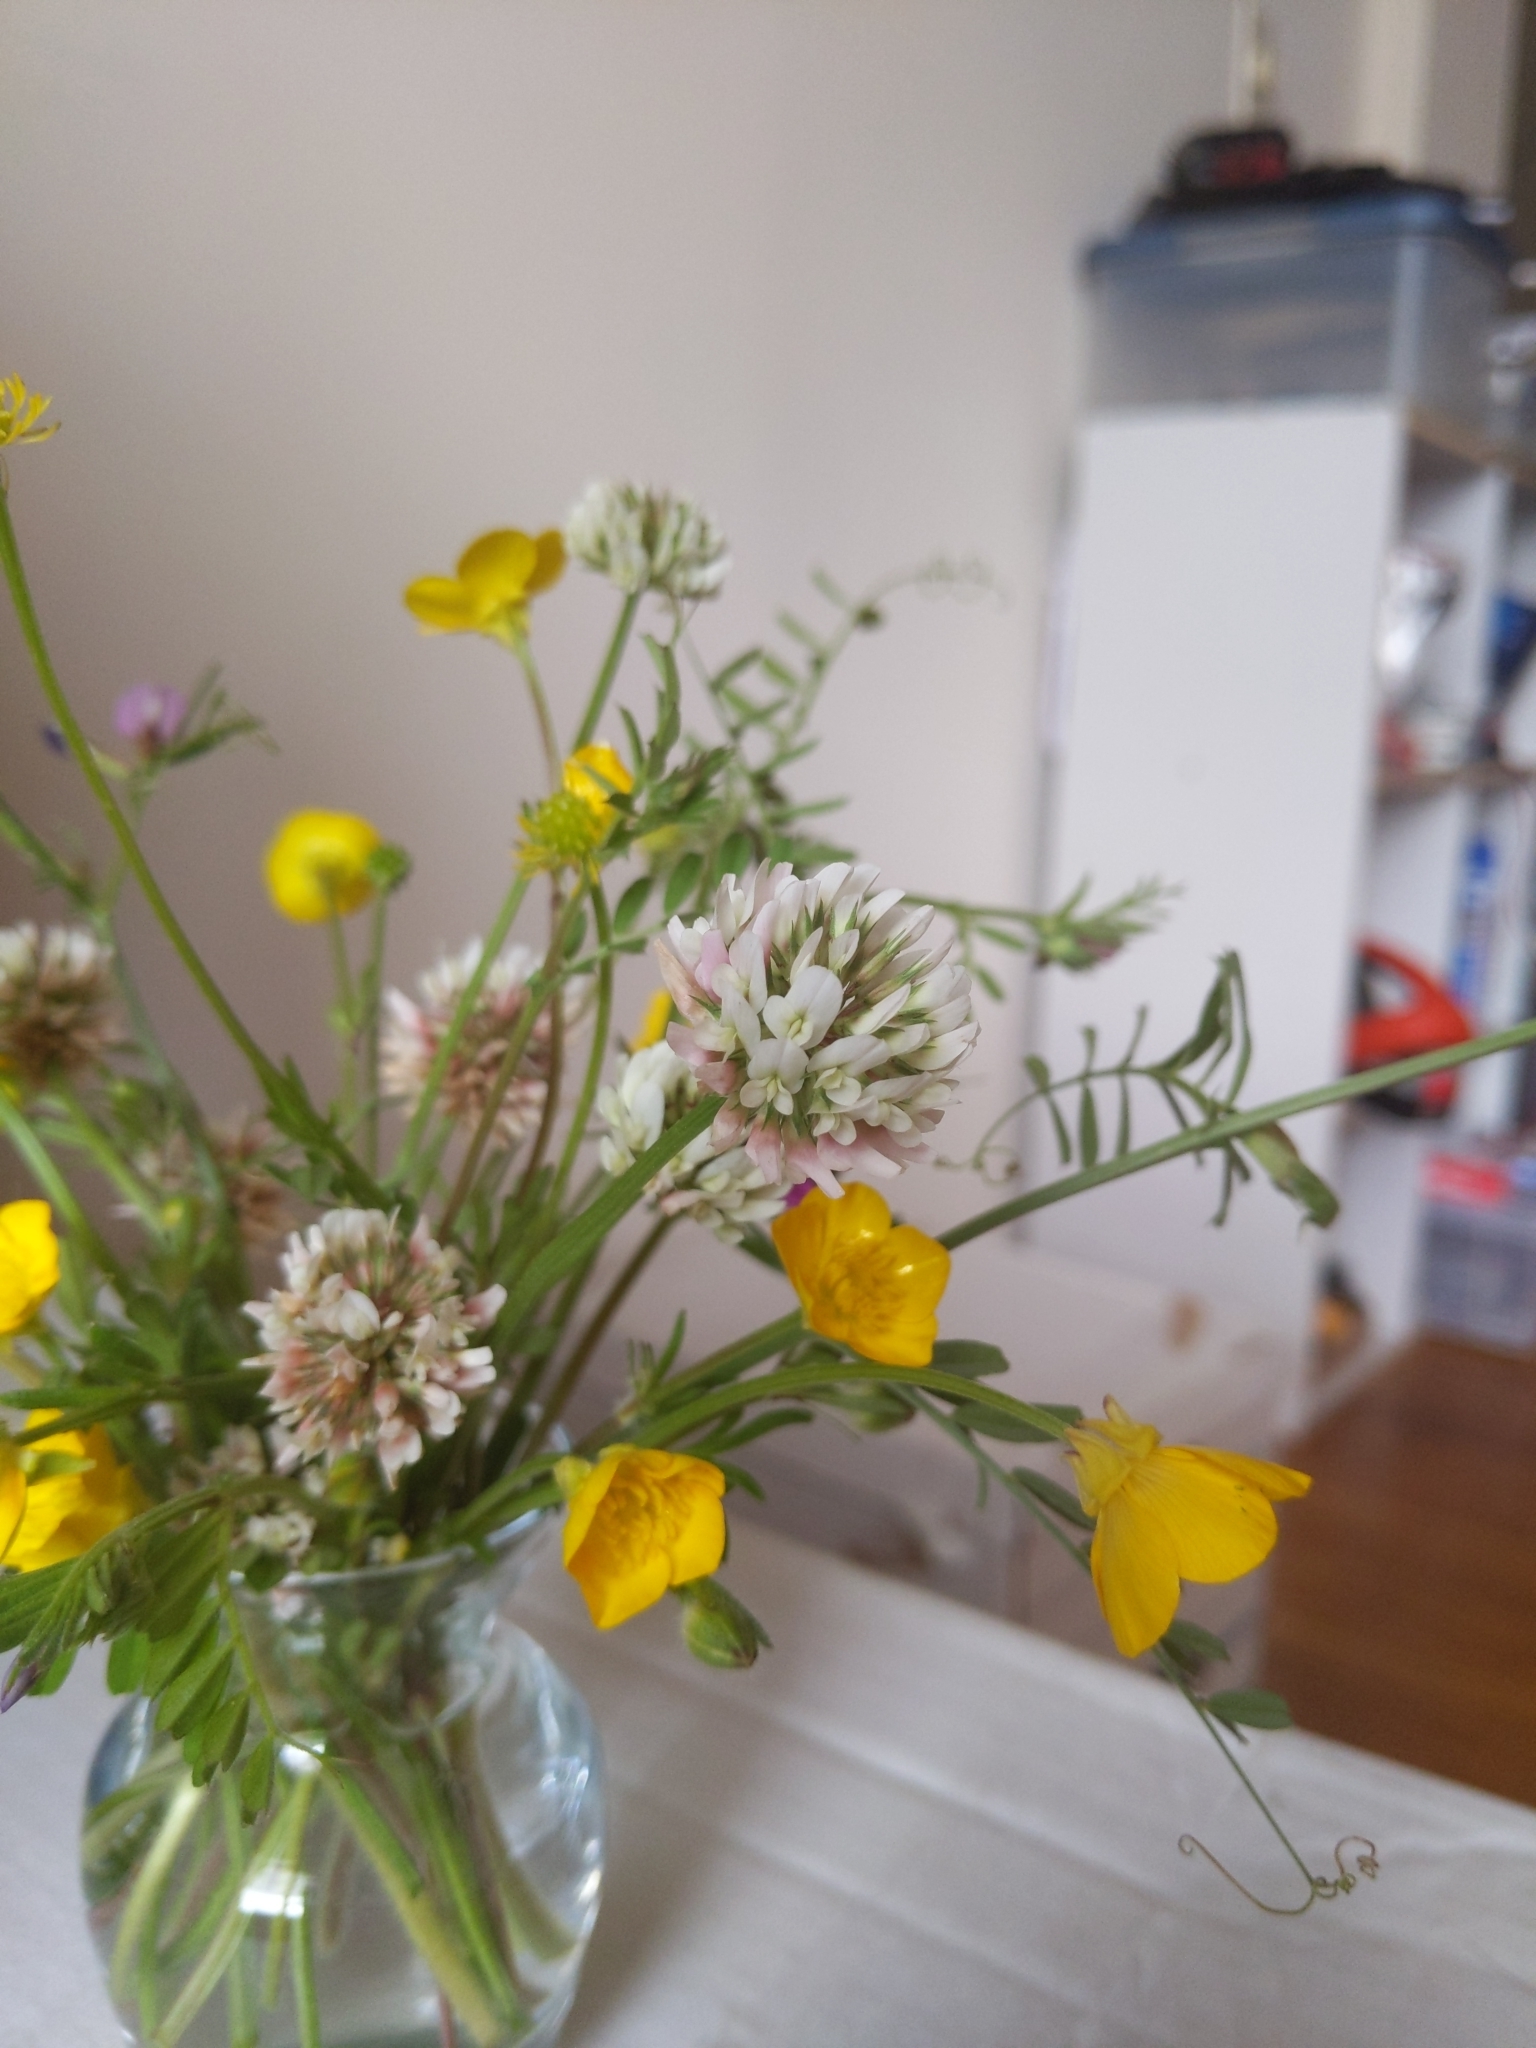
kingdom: Plantae
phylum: Tracheophyta
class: Magnoliopsida
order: Fabales
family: Fabaceae
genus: Trifolium
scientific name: Trifolium repens
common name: White clover
